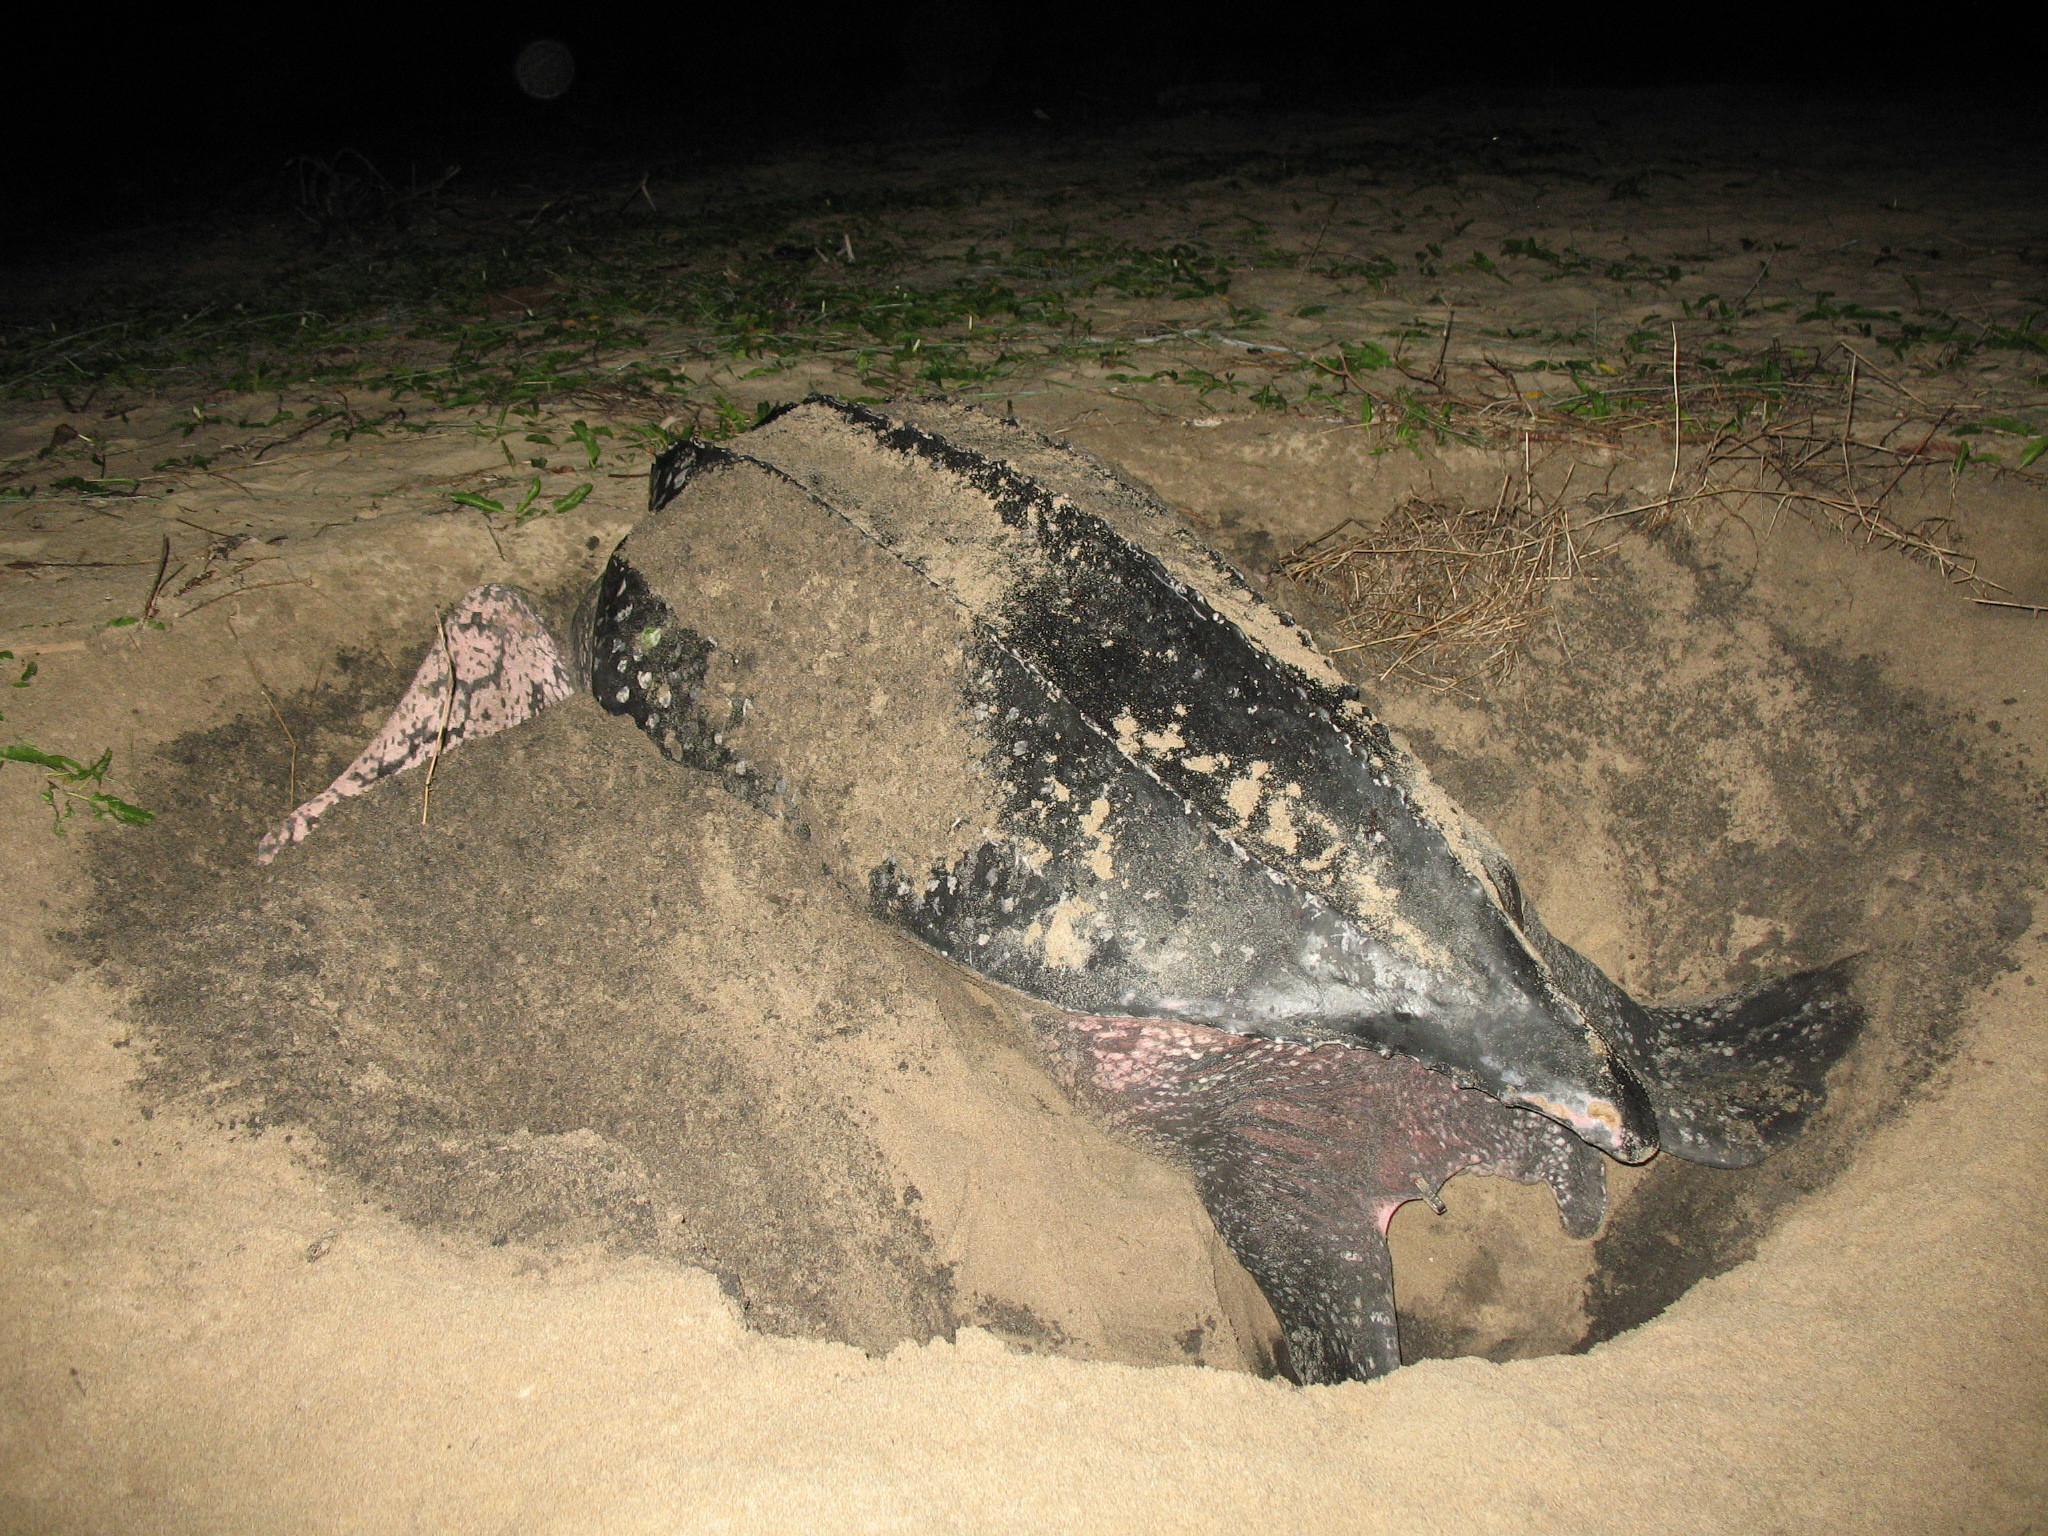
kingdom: Animalia
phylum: Chordata
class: Testudines
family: Dermochelyidae
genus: Dermochelys
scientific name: Dermochelys coriacea
